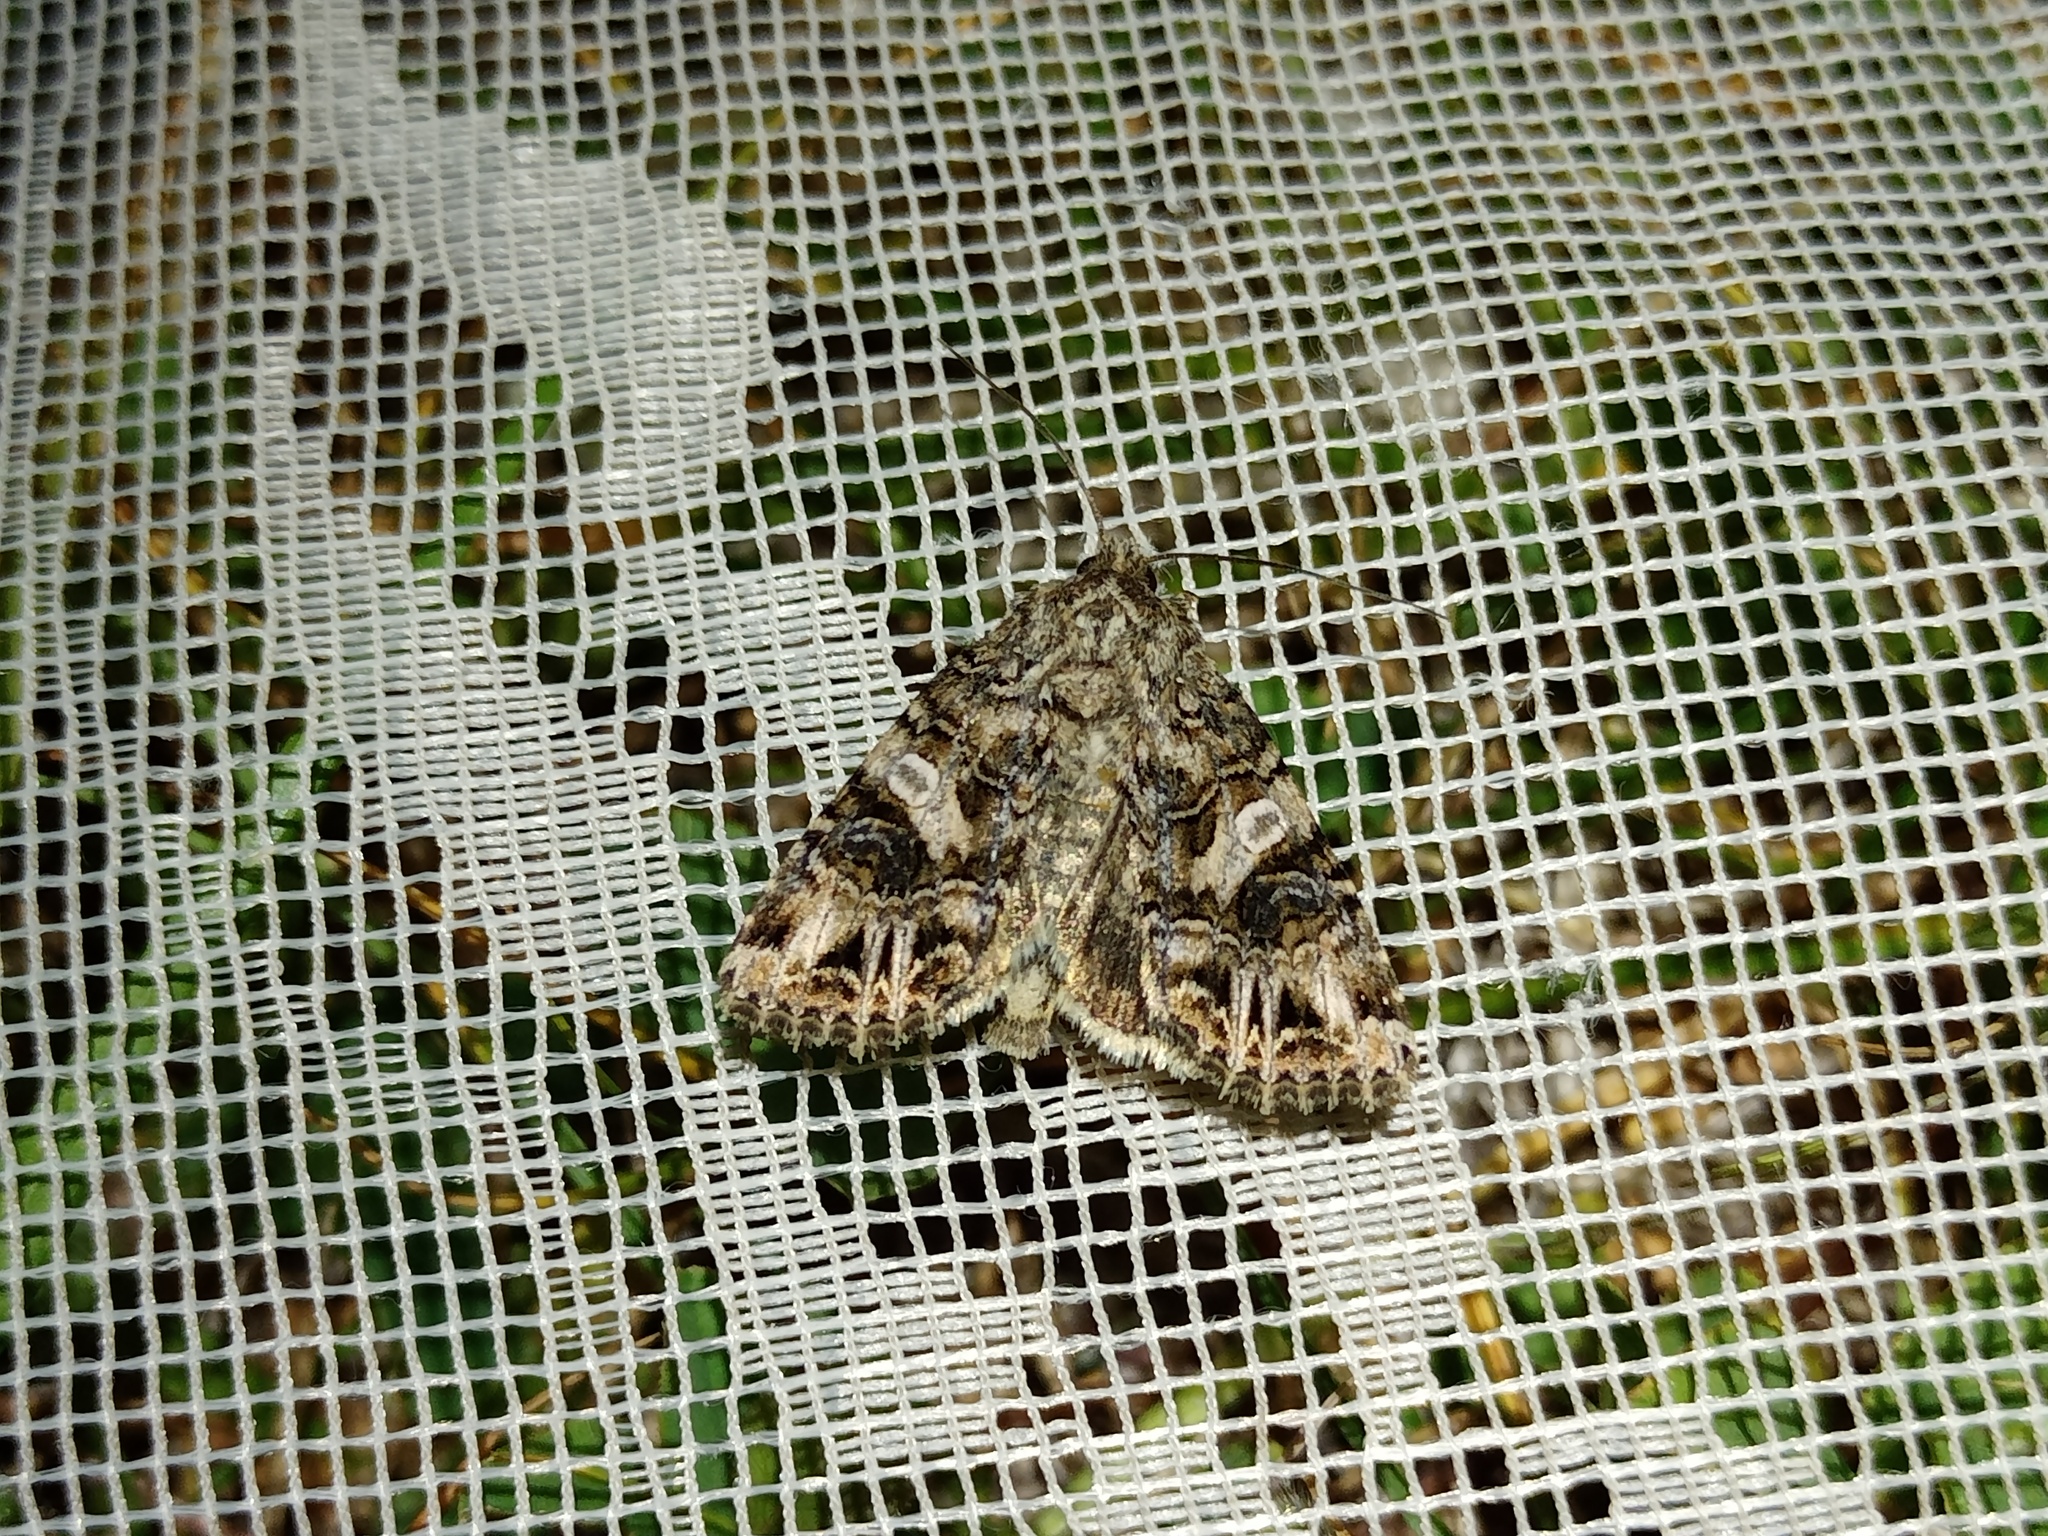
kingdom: Animalia
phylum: Arthropoda
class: Insecta
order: Lepidoptera
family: Noctuidae
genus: Anarta
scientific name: Anarta odontites
